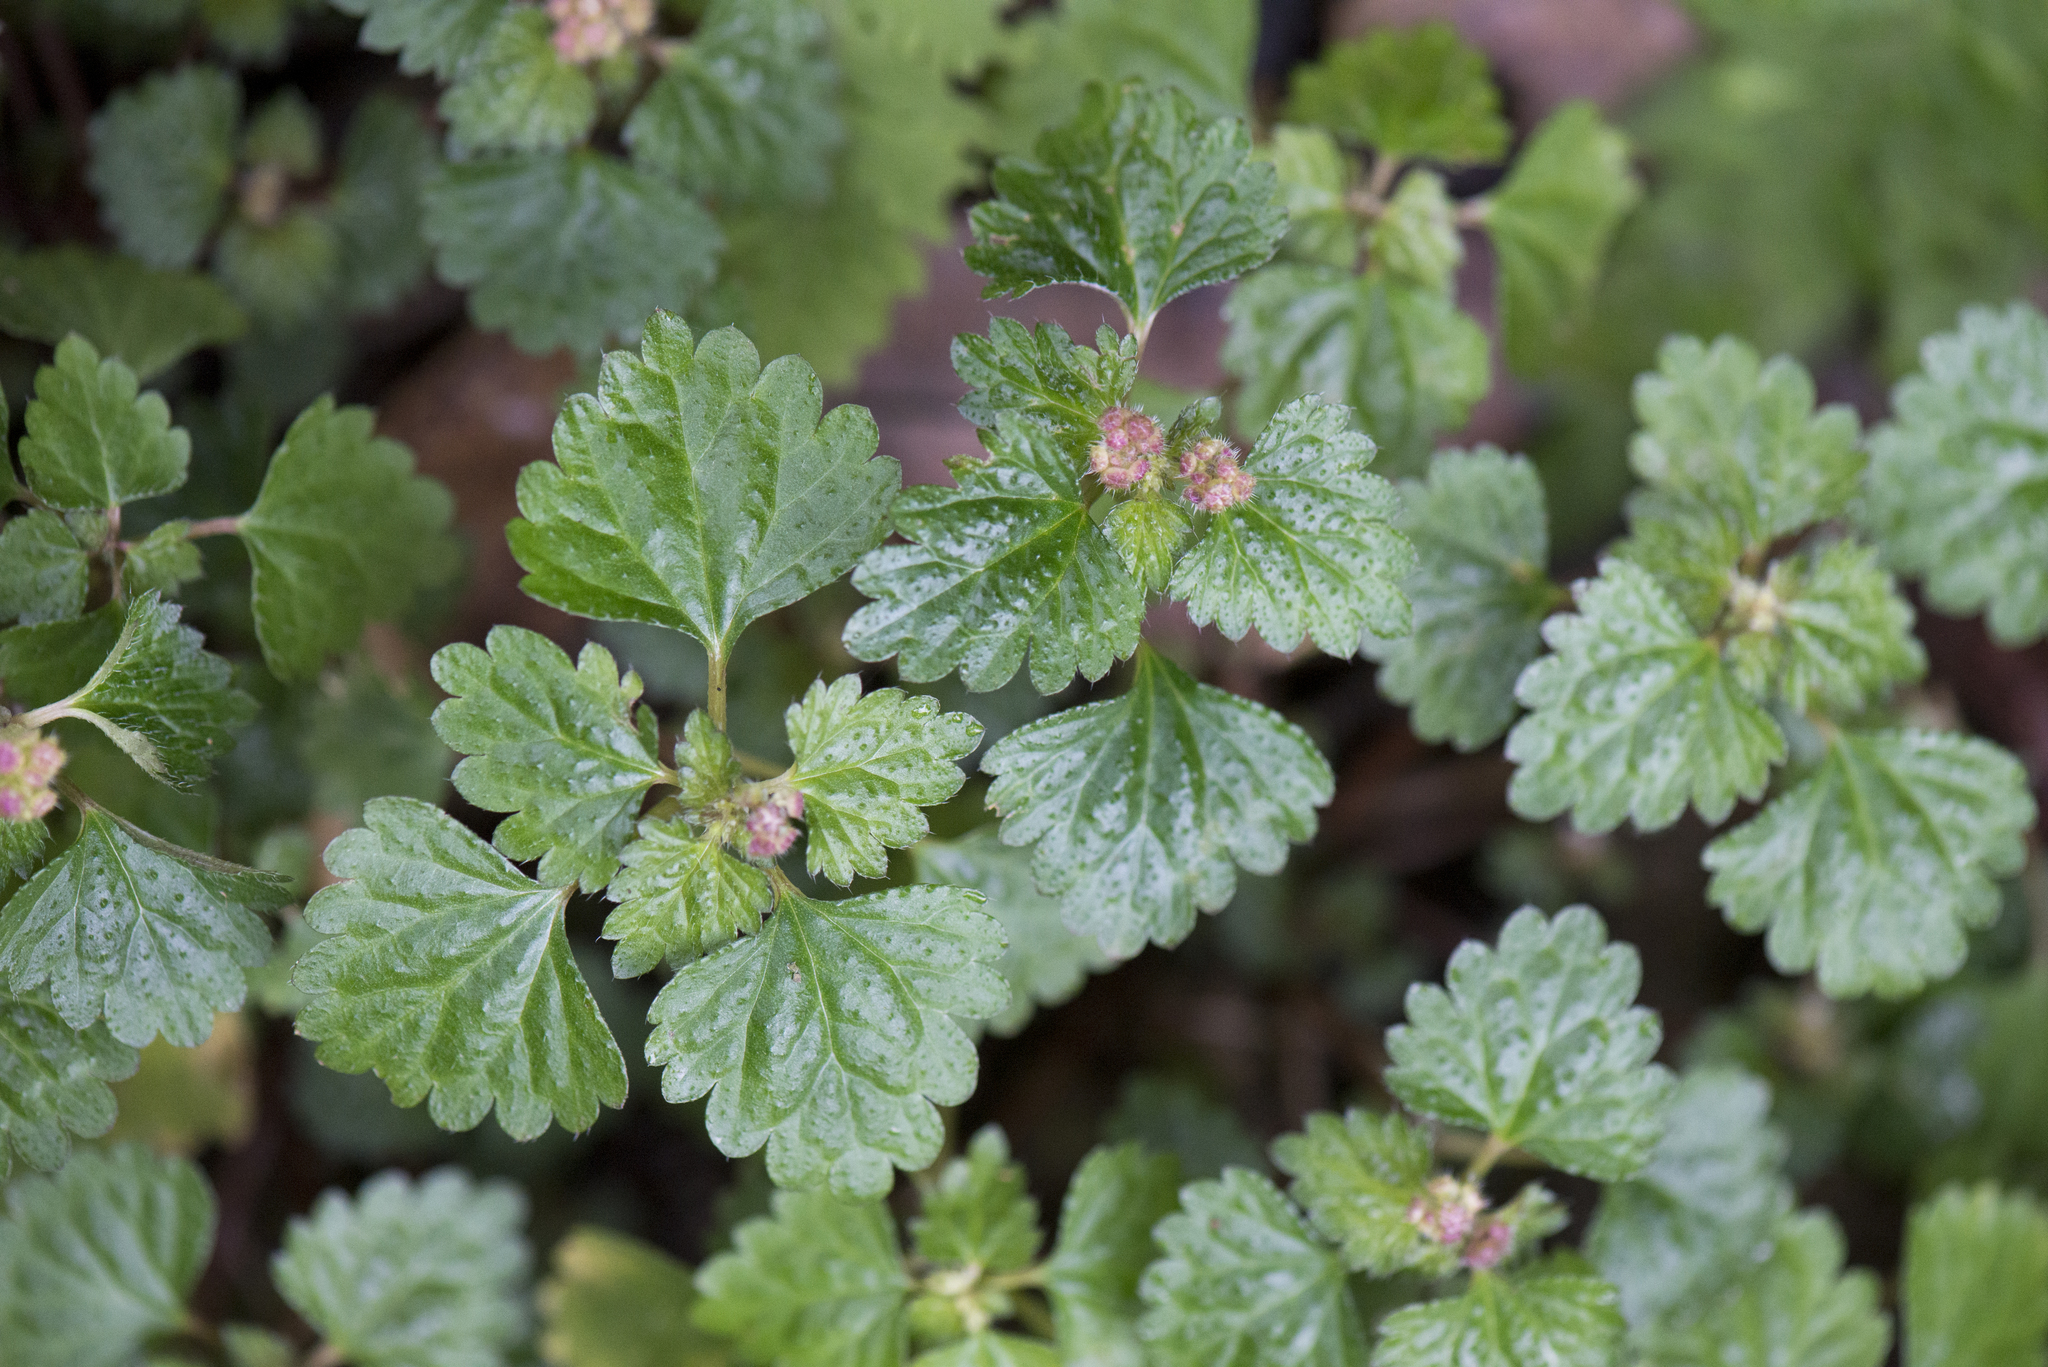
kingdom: Plantae
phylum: Tracheophyta
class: Magnoliopsida
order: Rosales
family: Urticaceae
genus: Nanocnide
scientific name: Nanocnide japonica
